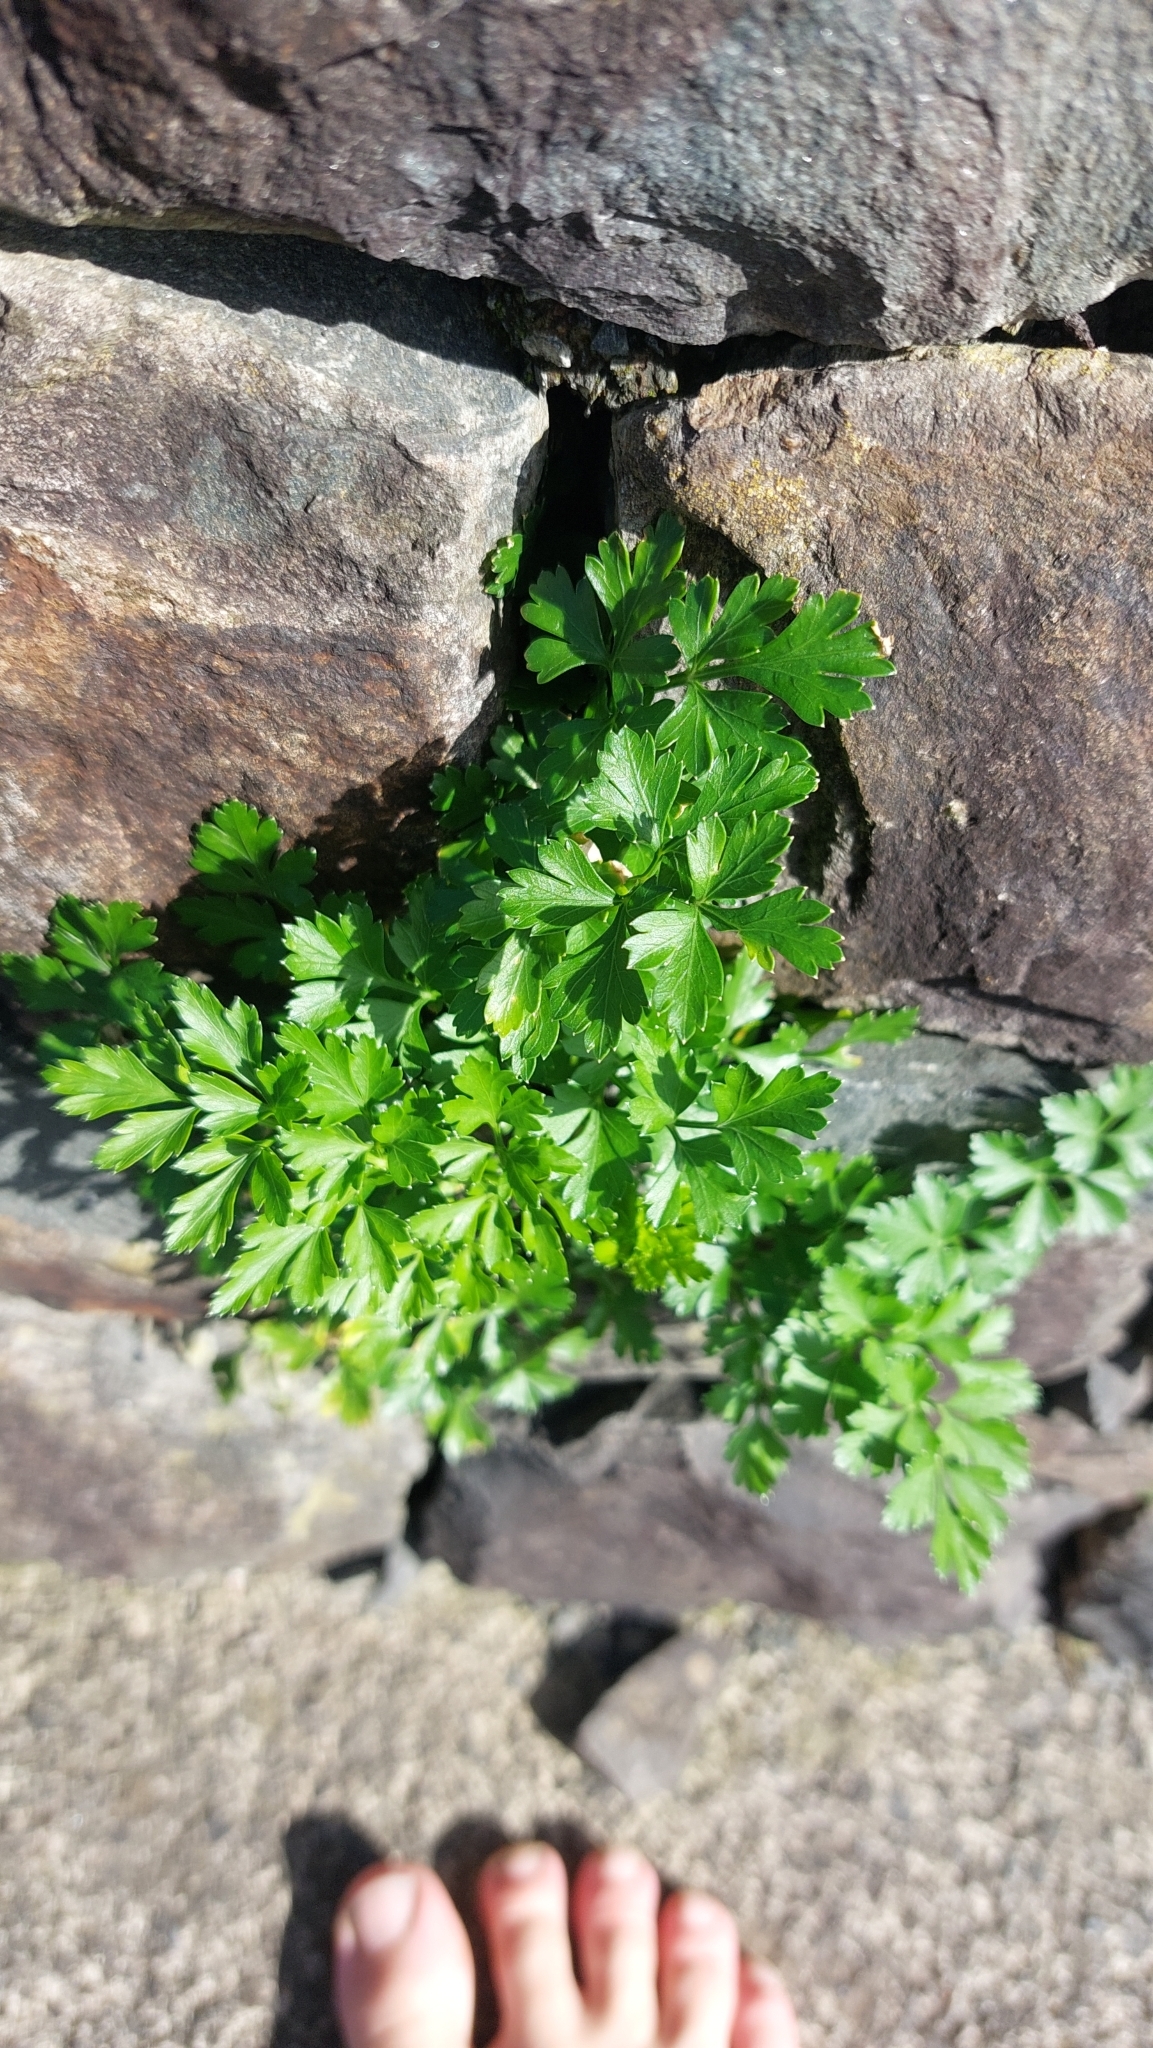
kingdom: Plantae
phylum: Tracheophyta
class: Magnoliopsida
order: Apiales
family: Apiaceae
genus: Petroselinum
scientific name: Petroselinum crispum
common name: Parsley
